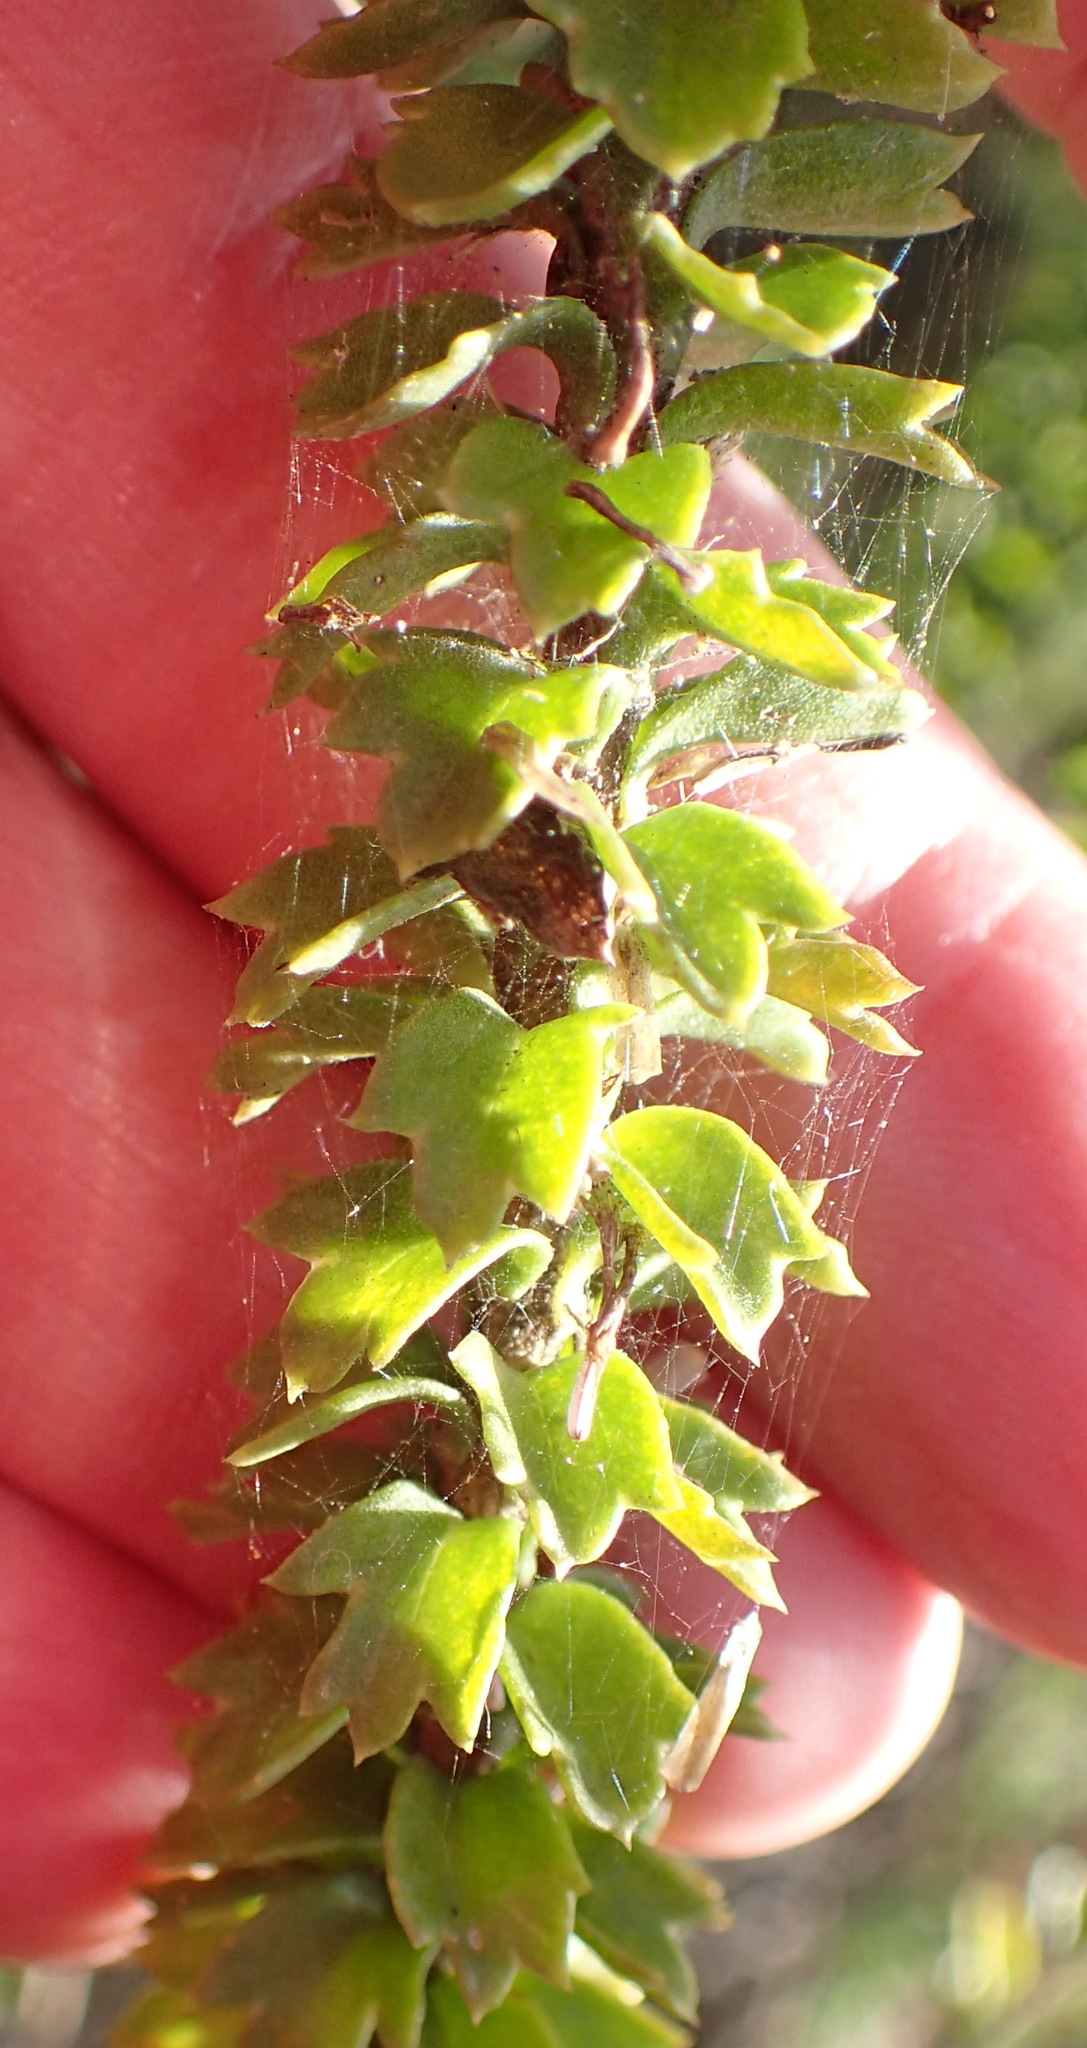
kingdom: Plantae
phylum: Tracheophyta
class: Magnoliopsida
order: Asterales
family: Asteraceae
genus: Athanasia
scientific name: Athanasia trifurcata
